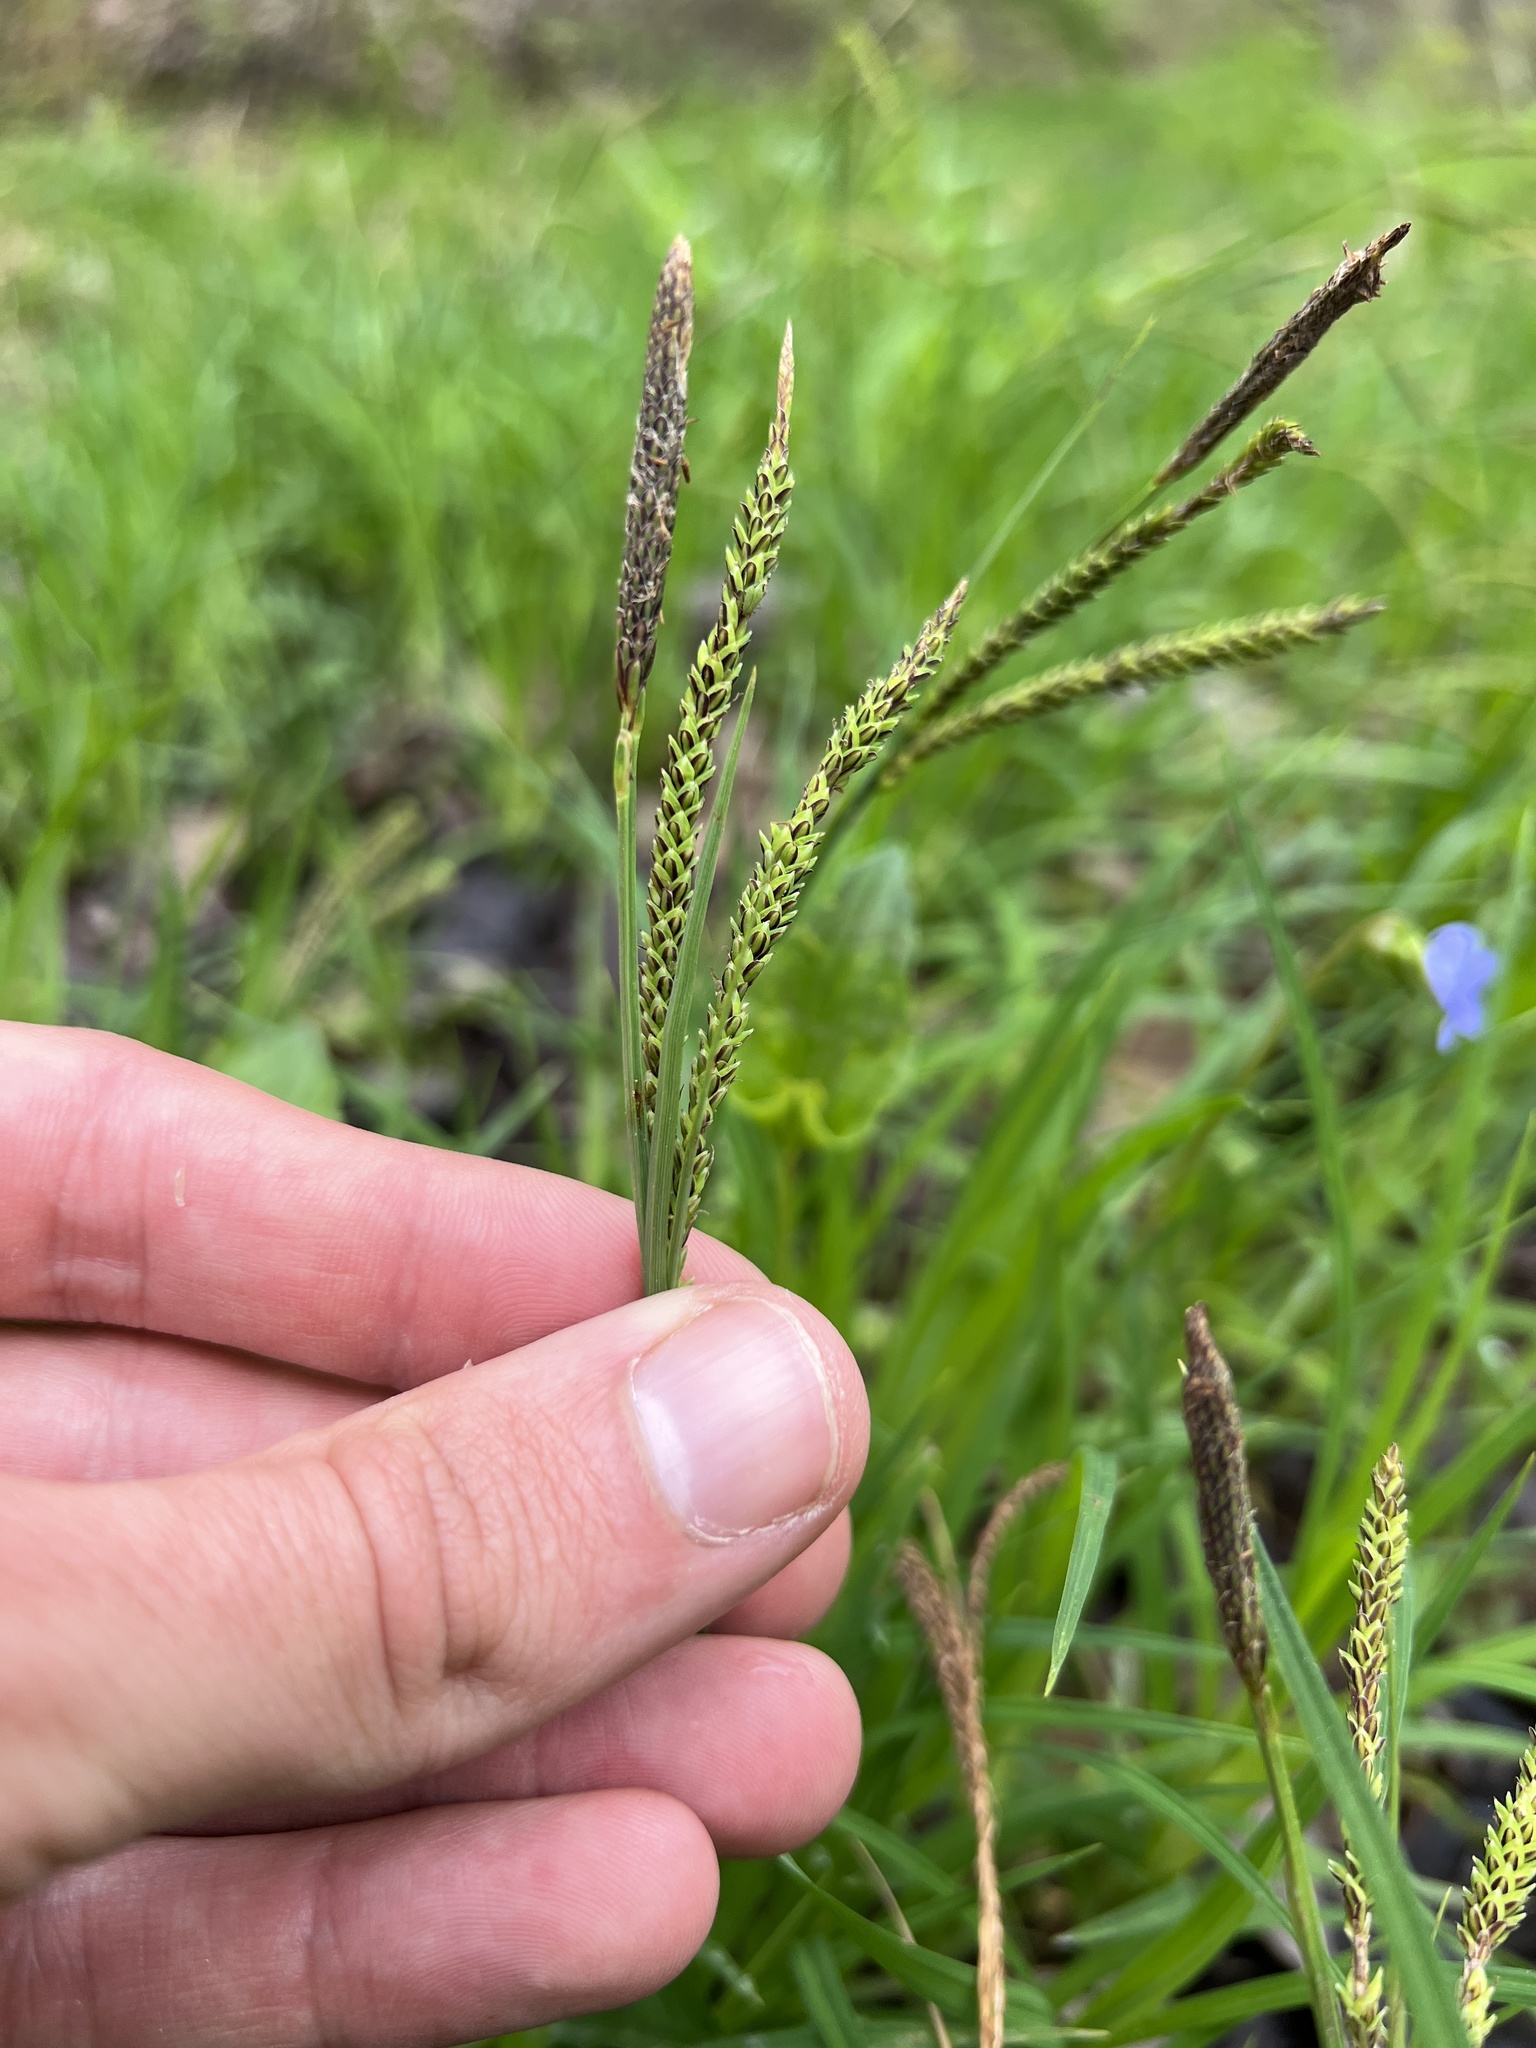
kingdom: Plantae
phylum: Tracheophyta
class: Liliopsida
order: Poales
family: Cyperaceae
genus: Carex
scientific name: Carex torta
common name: Twisted sedge
